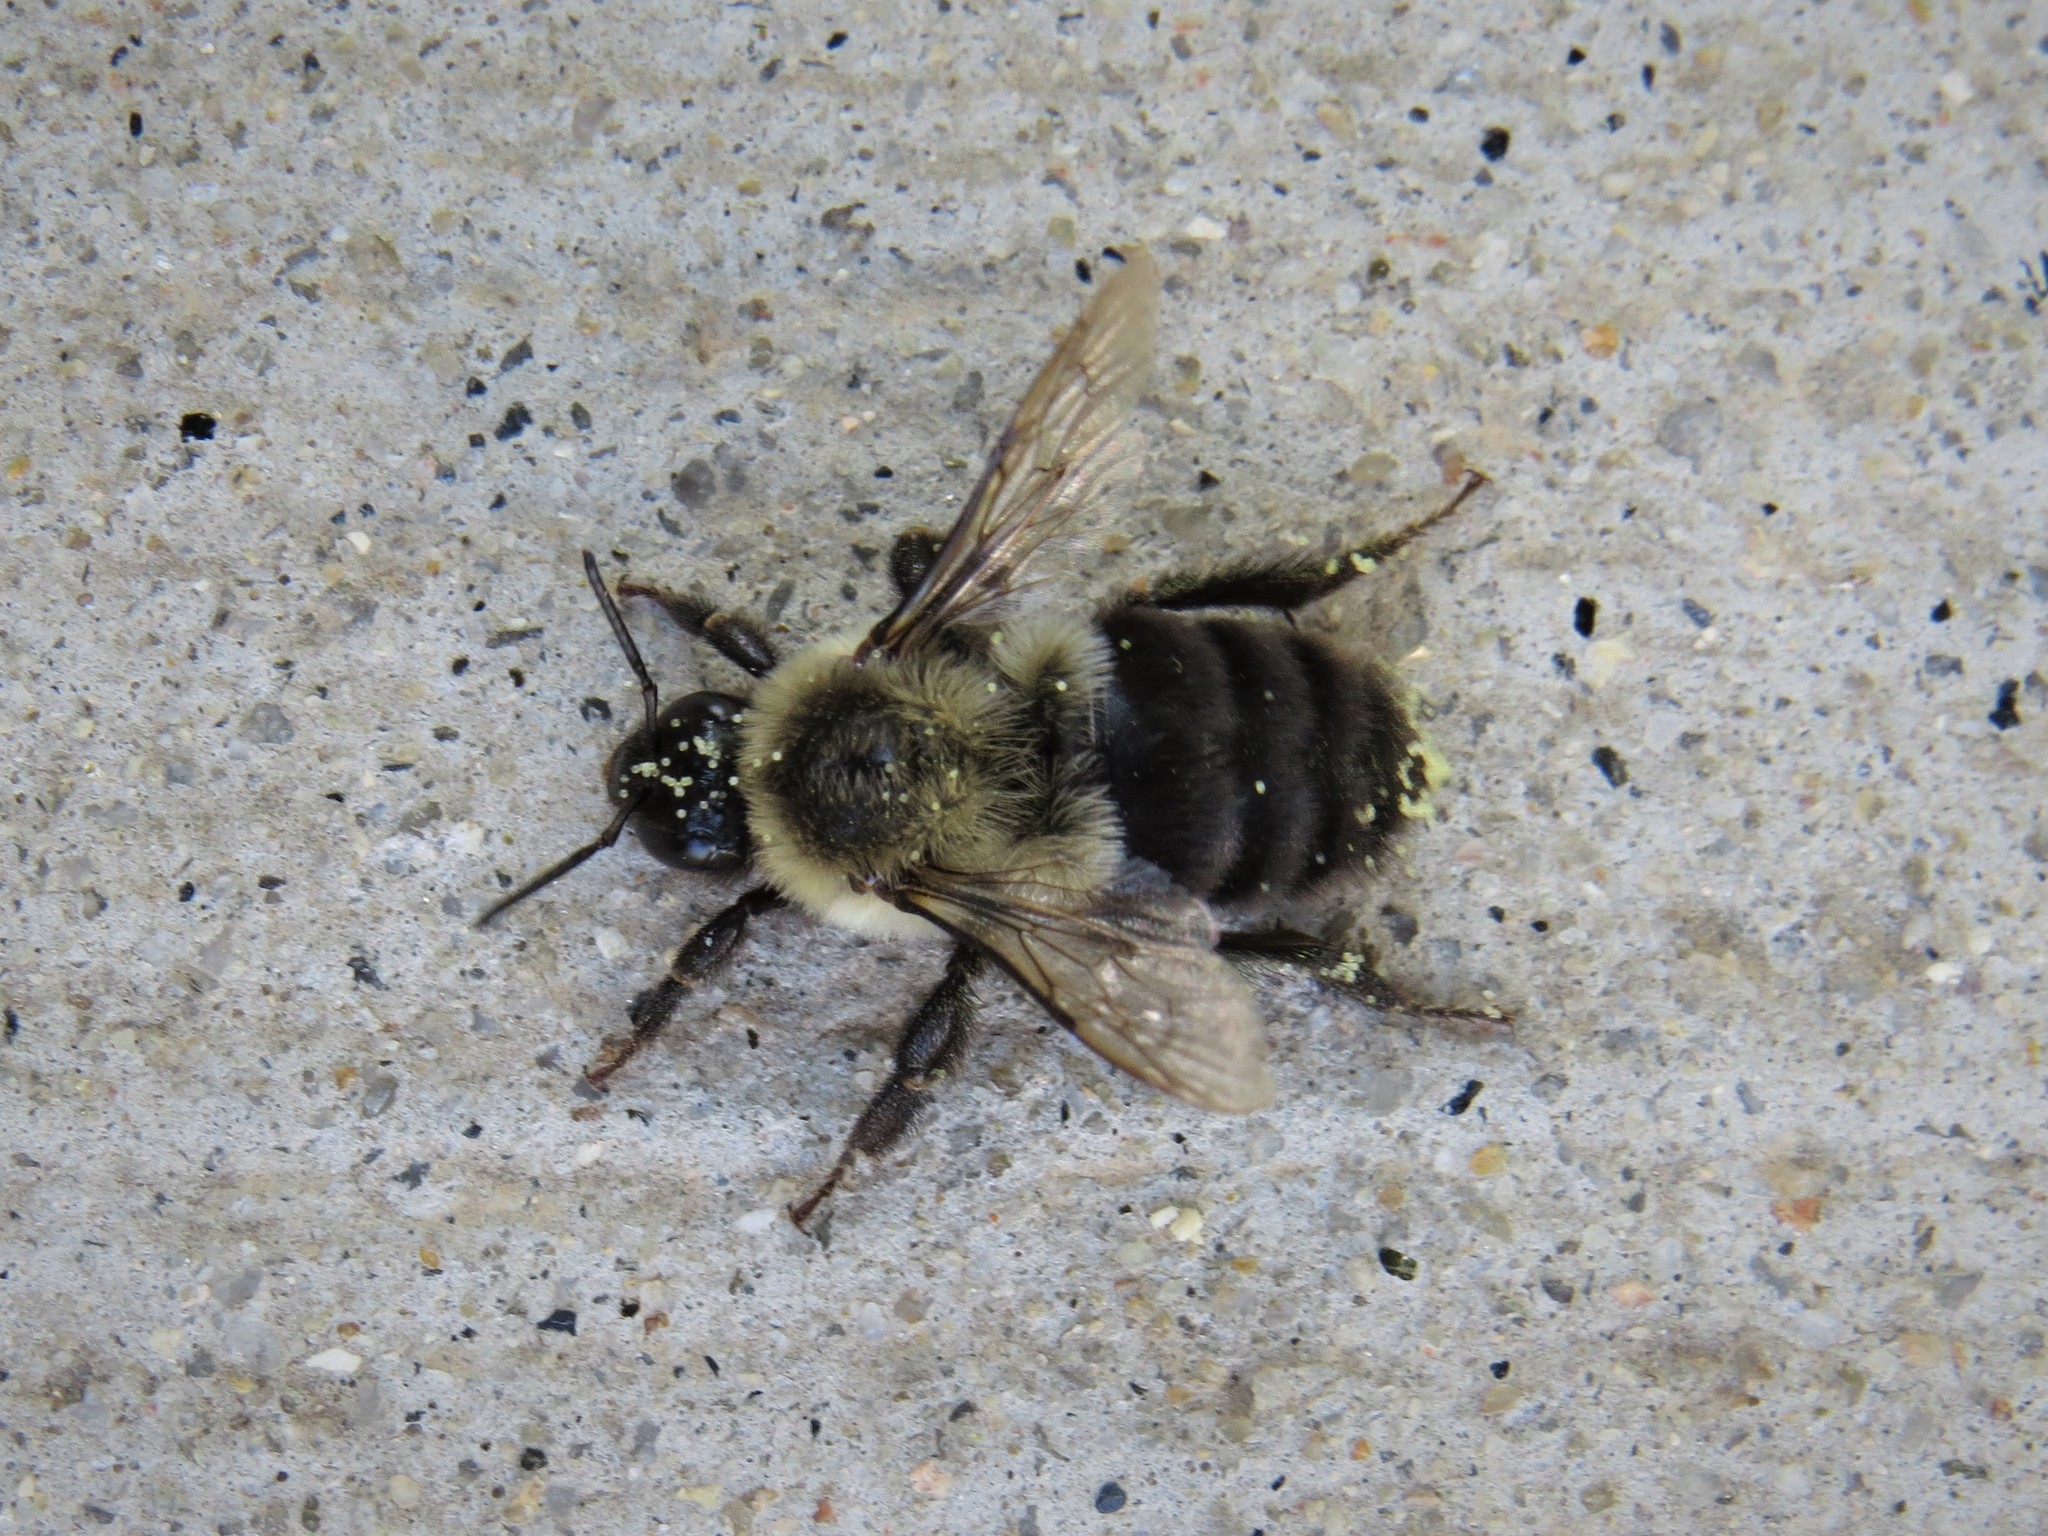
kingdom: Animalia
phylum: Arthropoda
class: Insecta
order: Hymenoptera
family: Apidae
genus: Bombus
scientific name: Bombus impatiens
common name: Common eastern bumble bee
